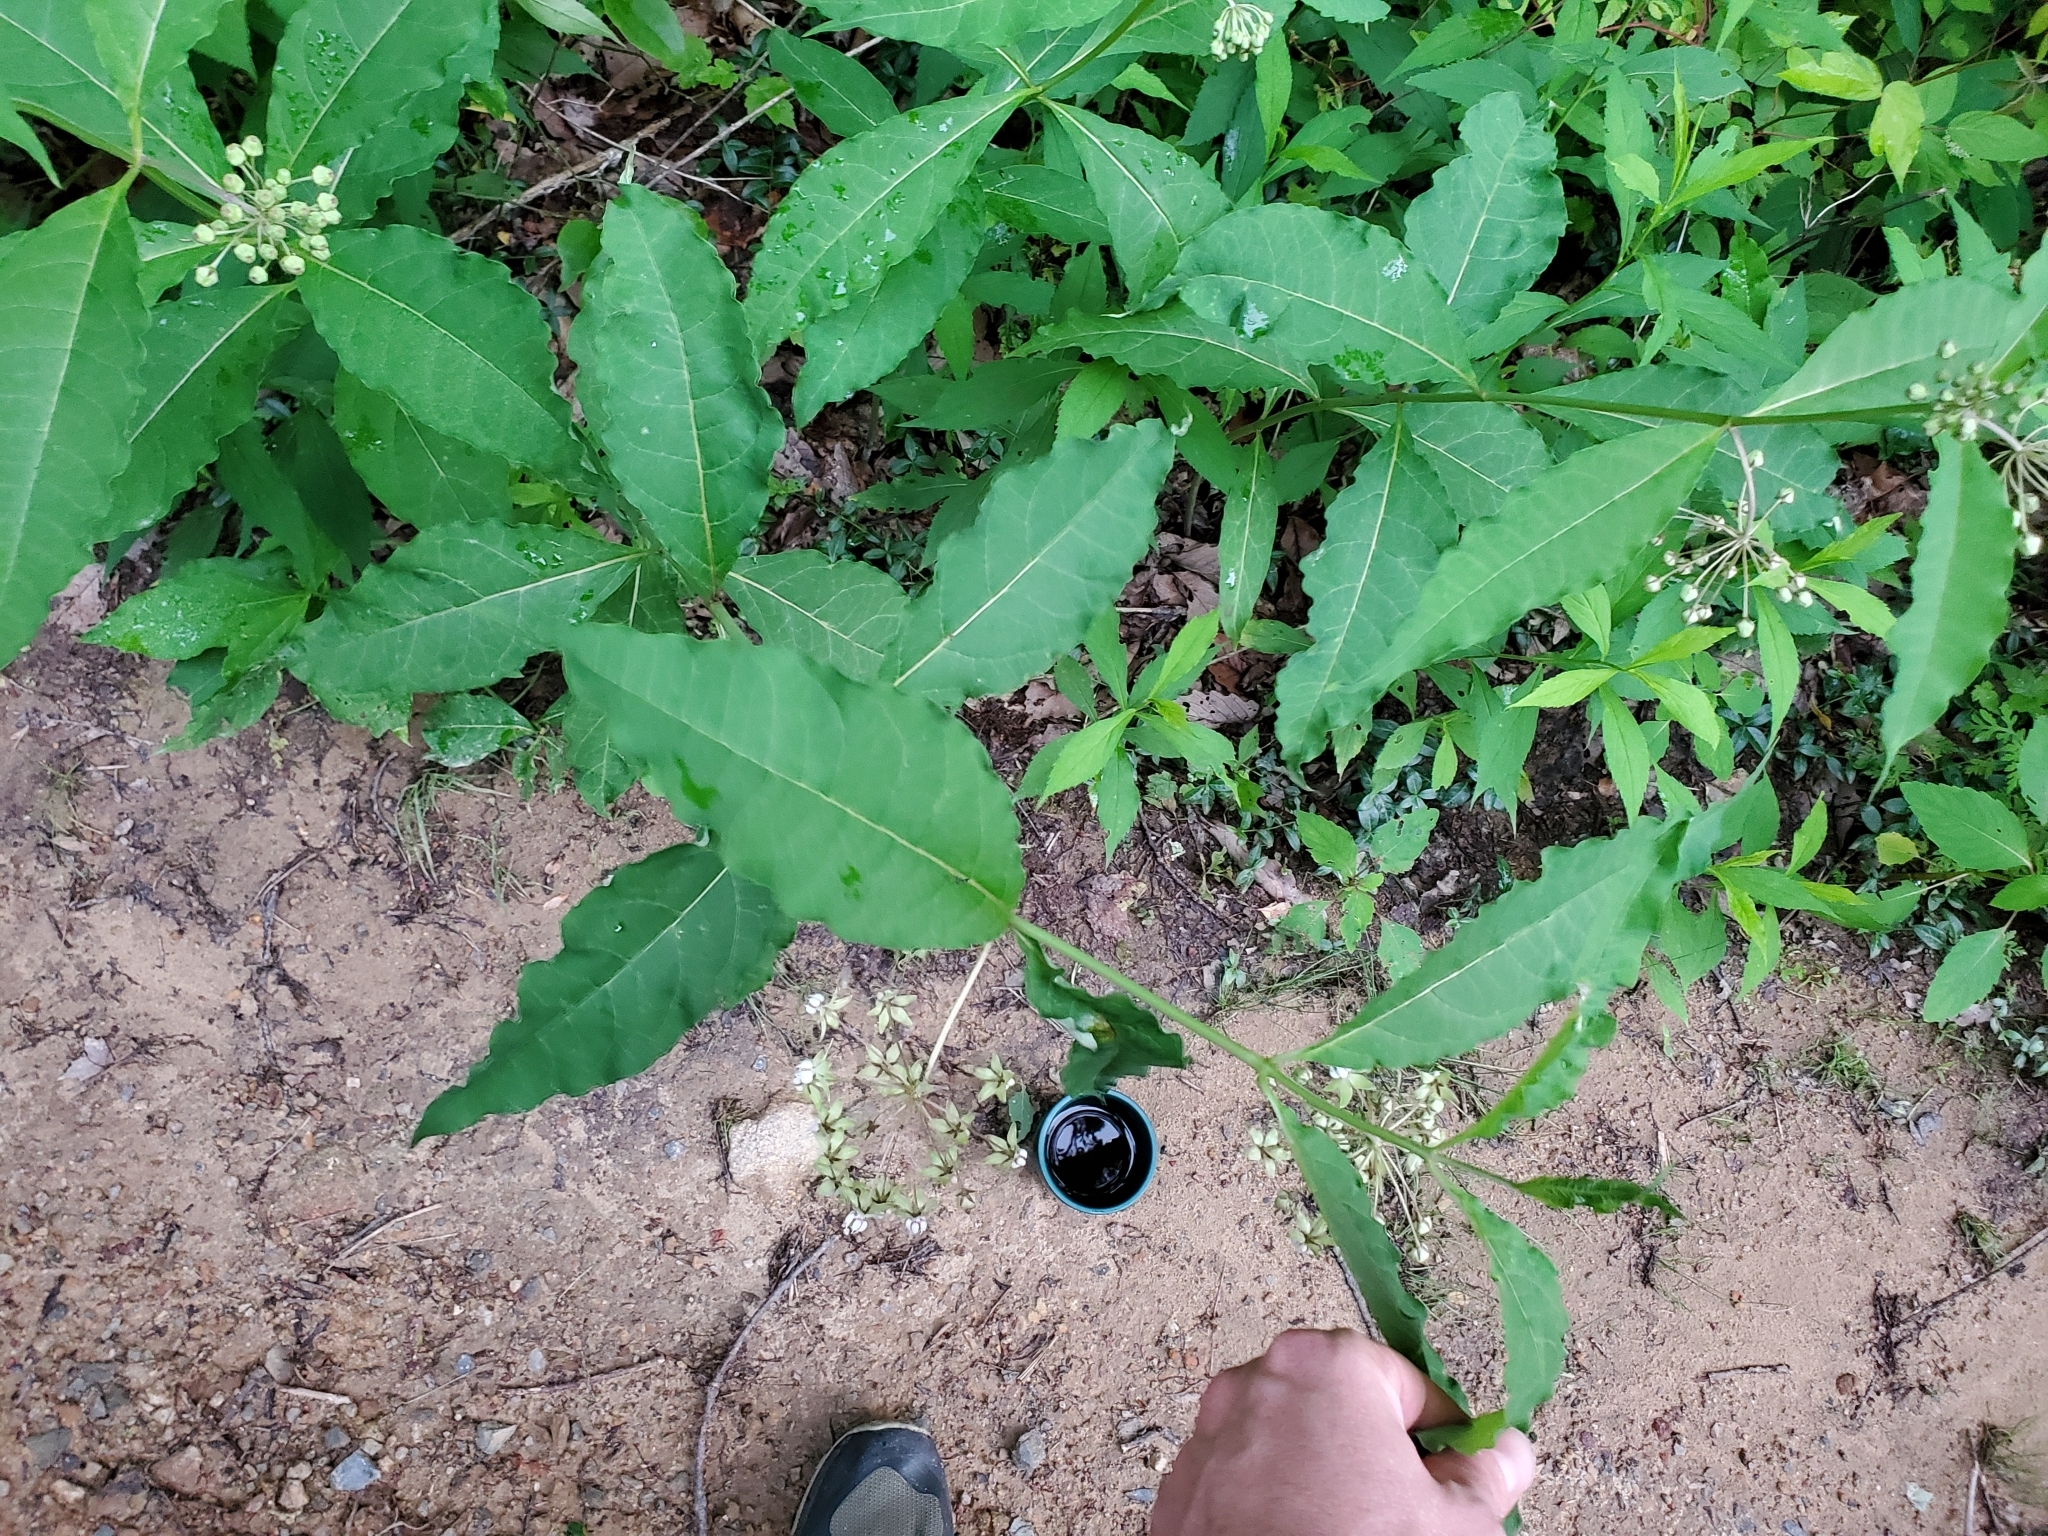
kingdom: Plantae
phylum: Tracheophyta
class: Magnoliopsida
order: Gentianales
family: Apocynaceae
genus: Asclepias
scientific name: Asclepias exaltata
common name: Poke milkweed
